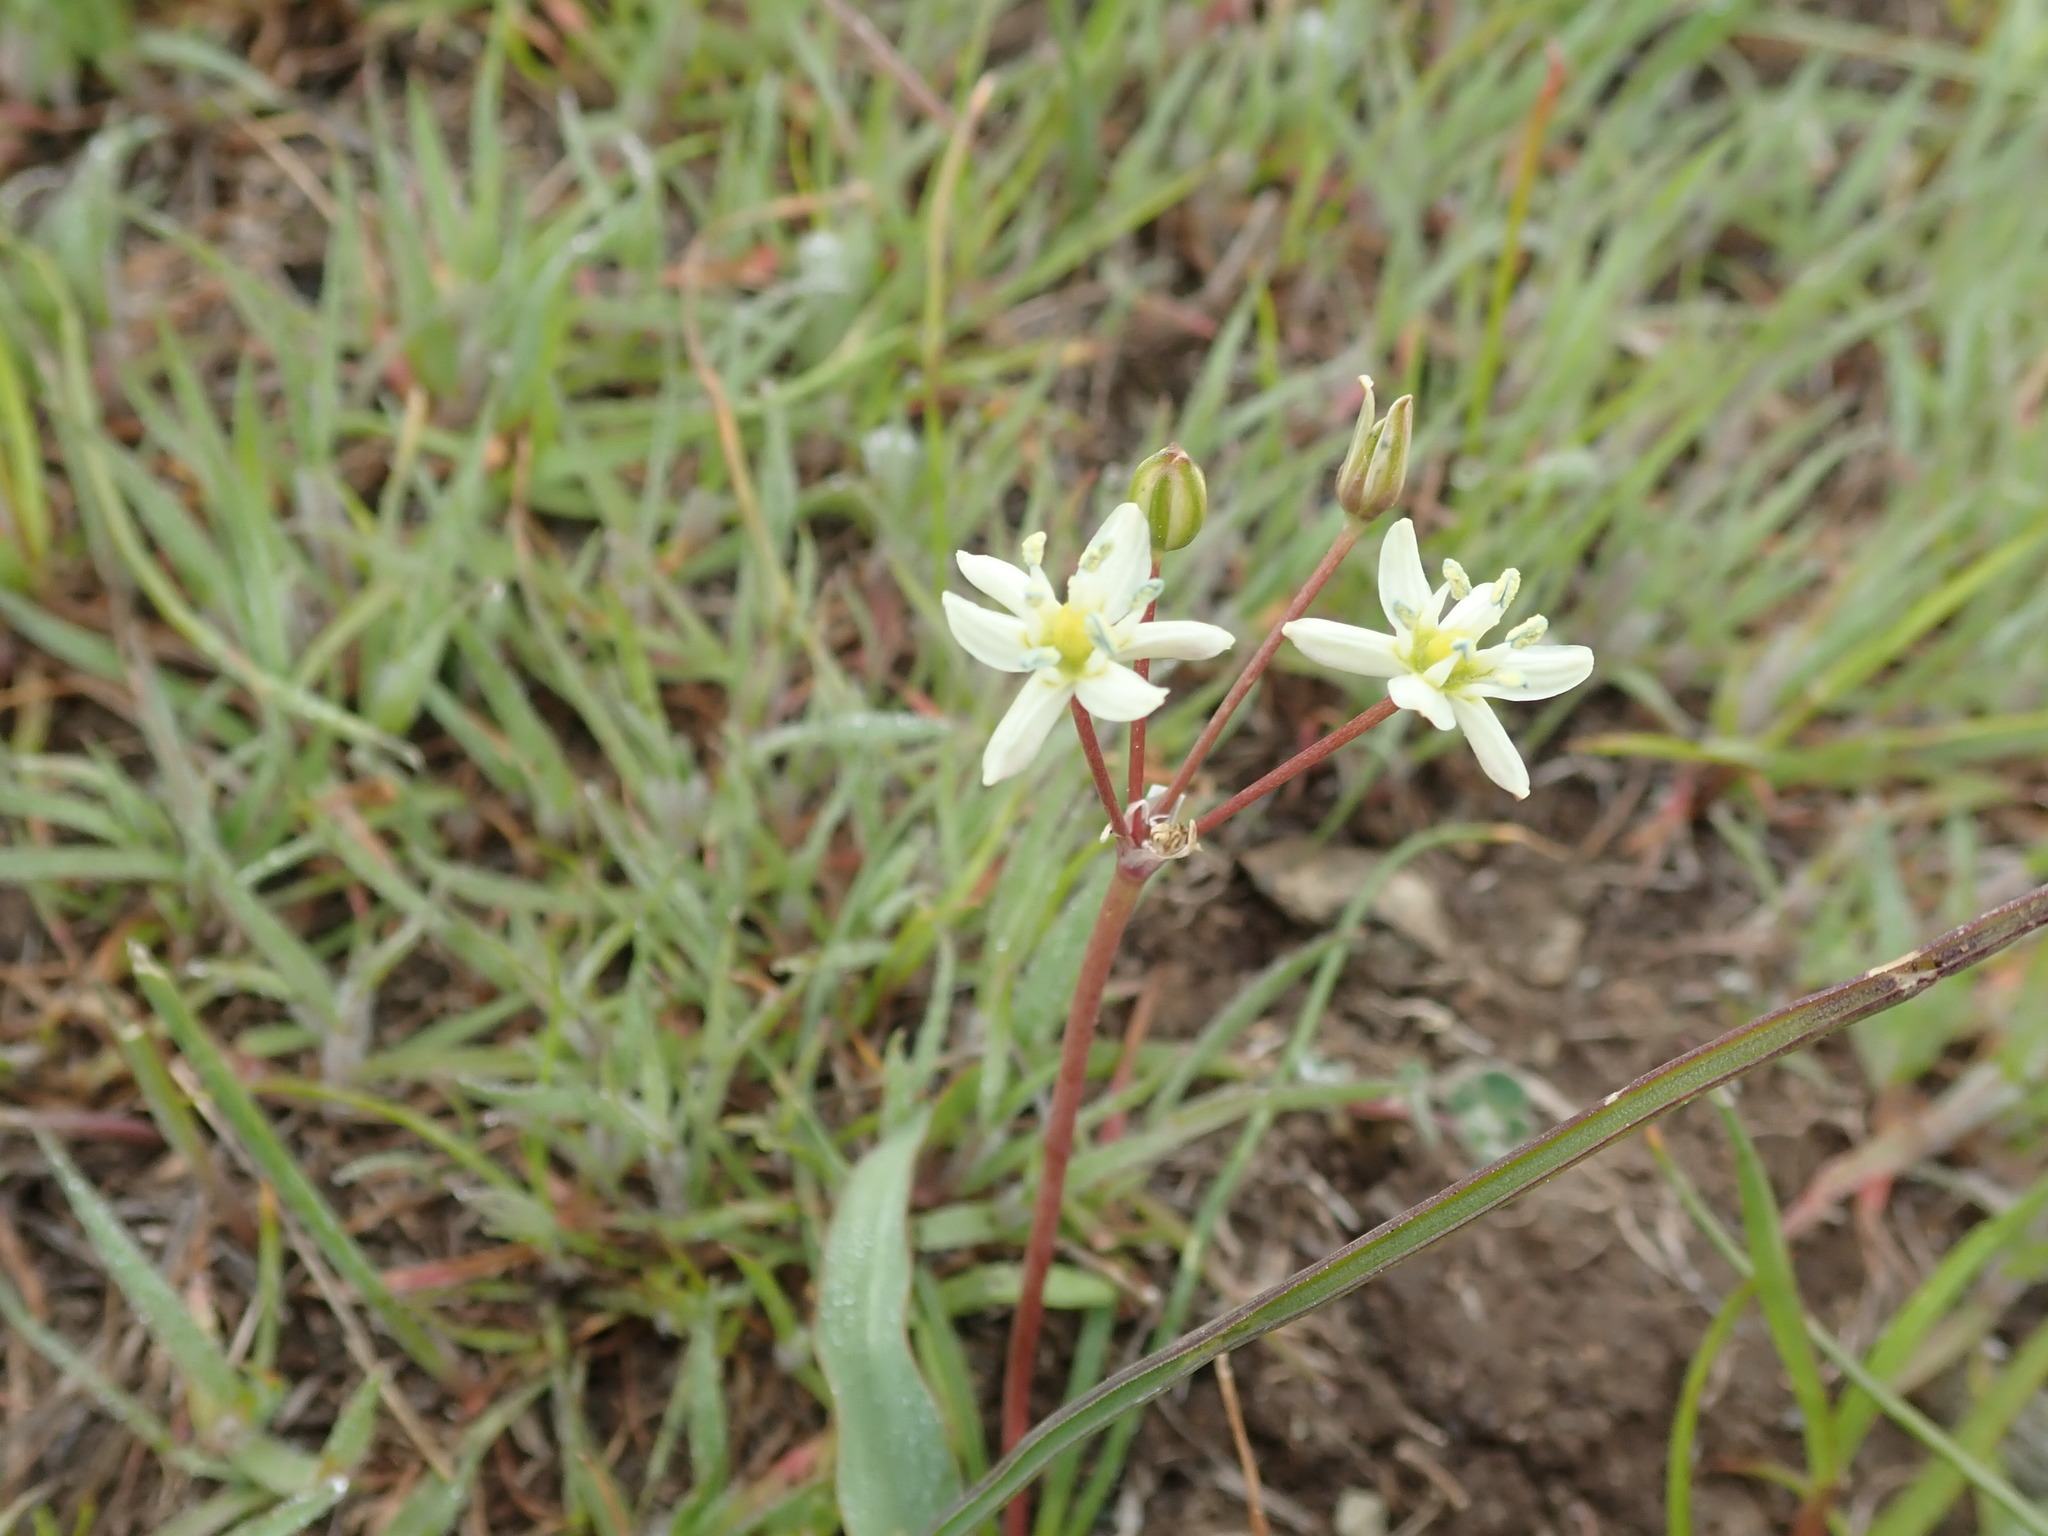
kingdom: Plantae
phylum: Tracheophyta
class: Liliopsida
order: Asparagales
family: Asparagaceae
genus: Muilla
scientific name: Muilla maritima
